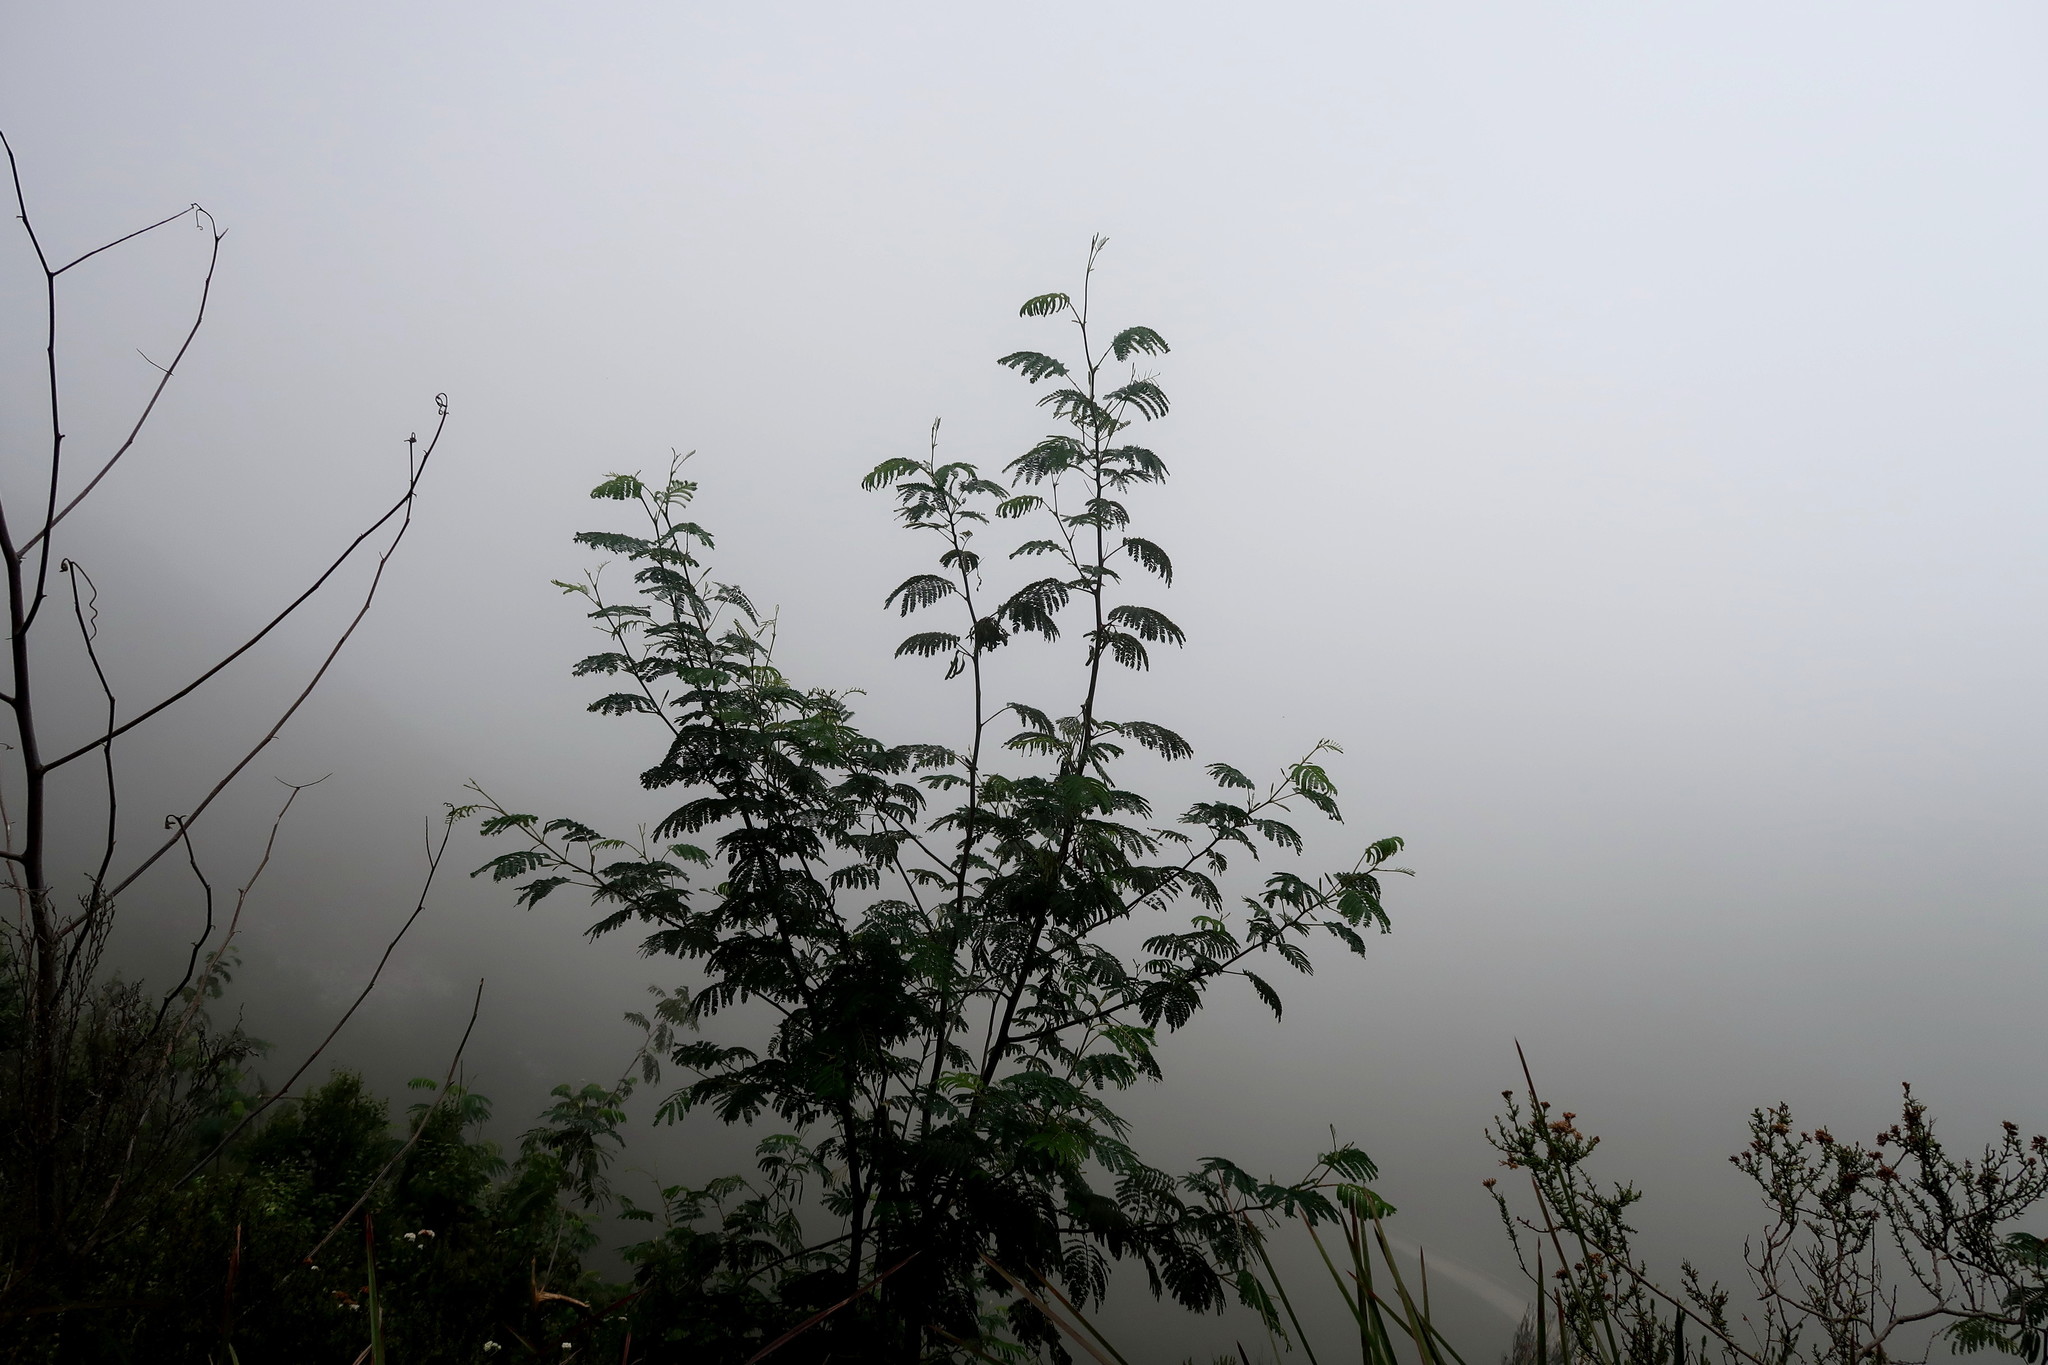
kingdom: Plantae
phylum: Tracheophyta
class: Magnoliopsida
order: Fabales
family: Fabaceae
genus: Paraserianthes
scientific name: Paraserianthes lophantha
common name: Plume albizia
